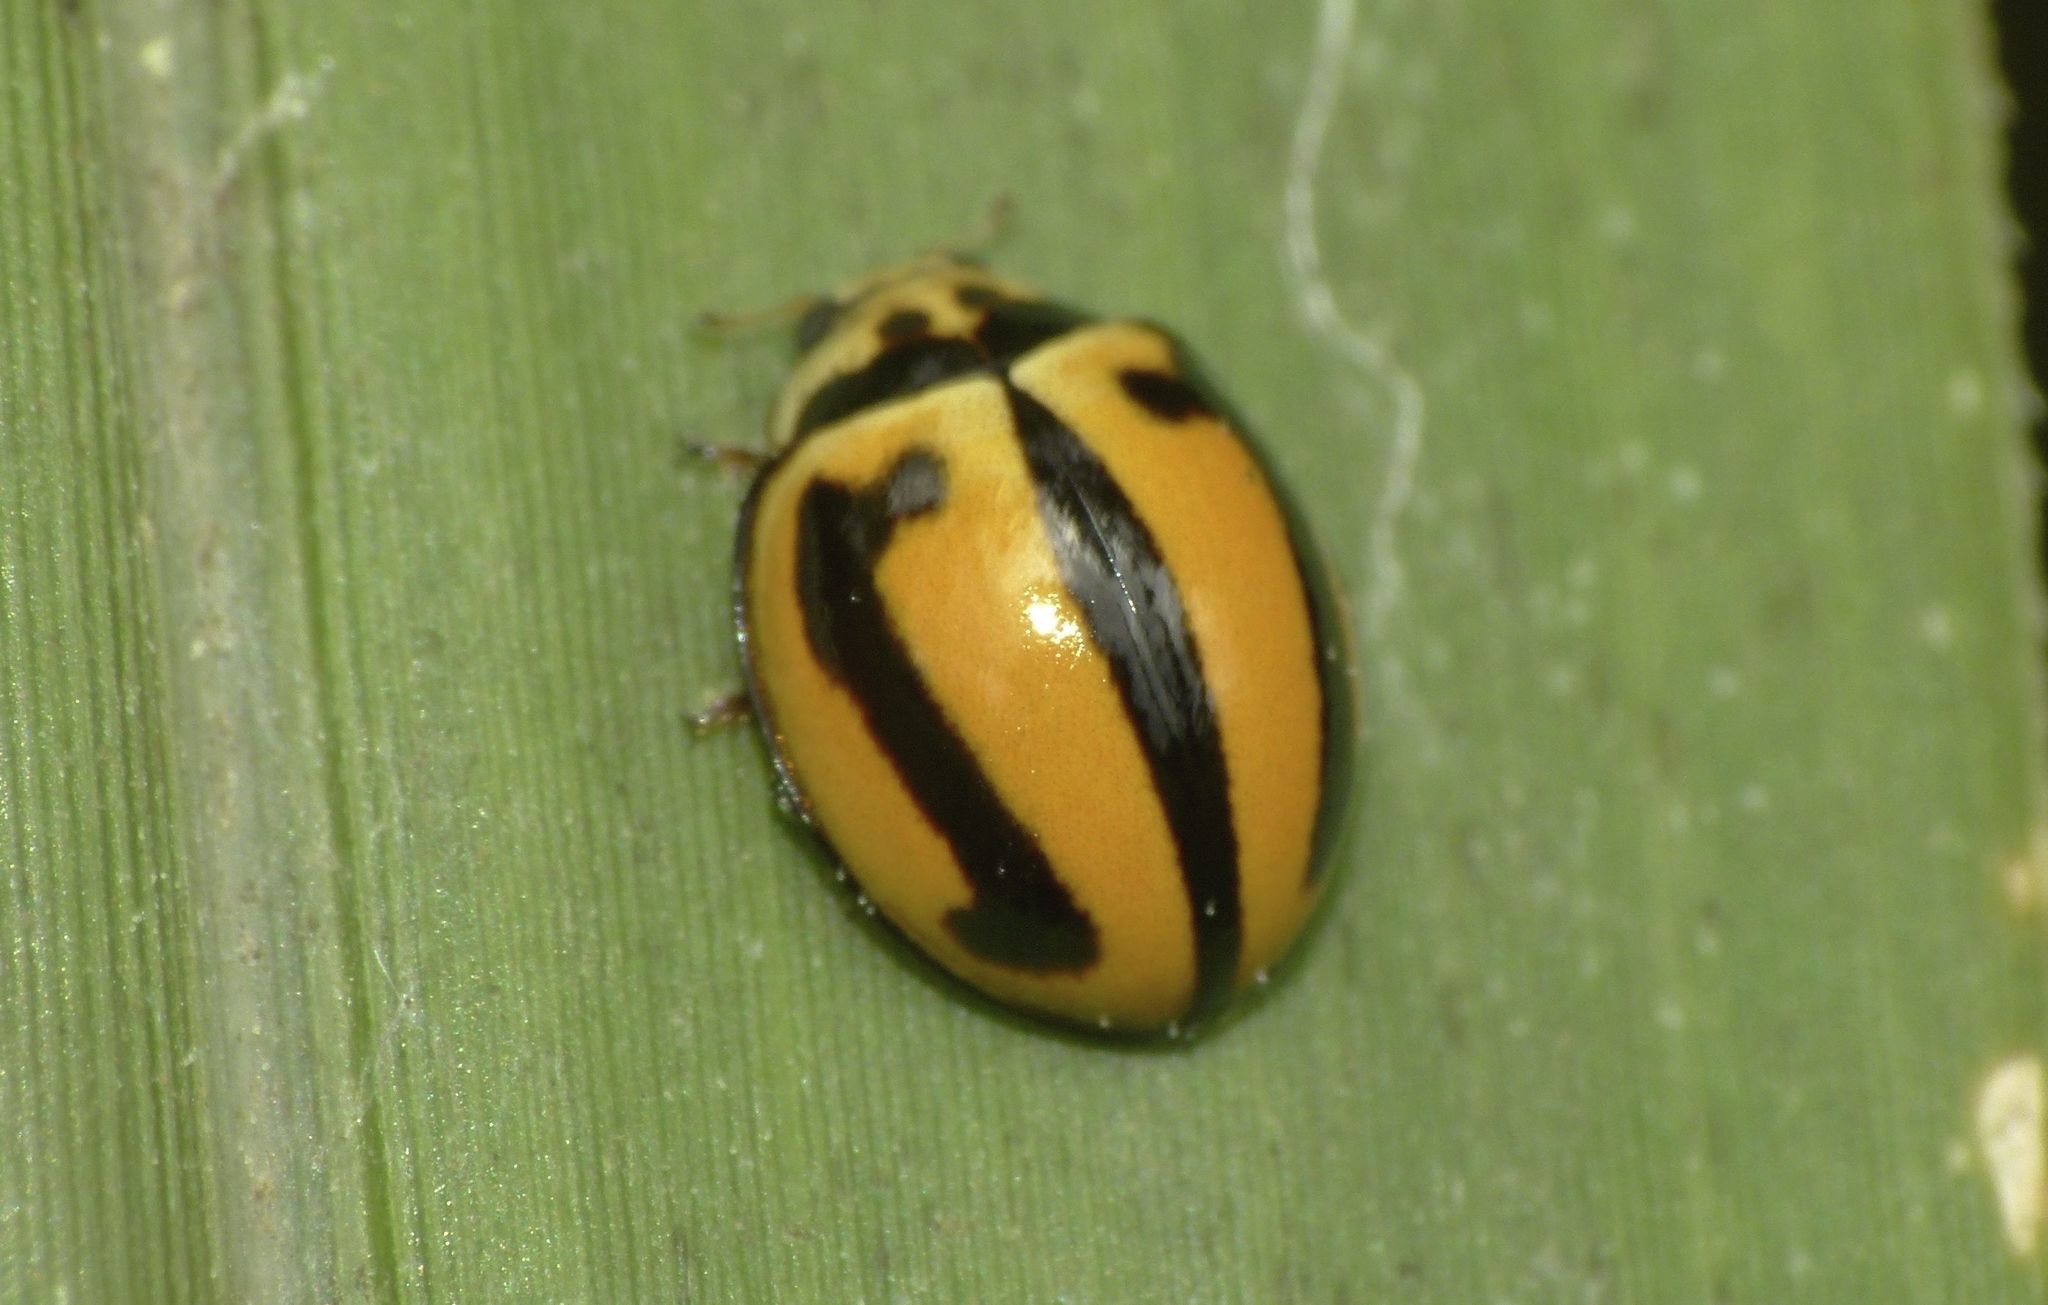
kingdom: Animalia
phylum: Arthropoda
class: Insecta
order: Coleoptera
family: Coccinellidae
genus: Micraspis
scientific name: Micraspis frenata
